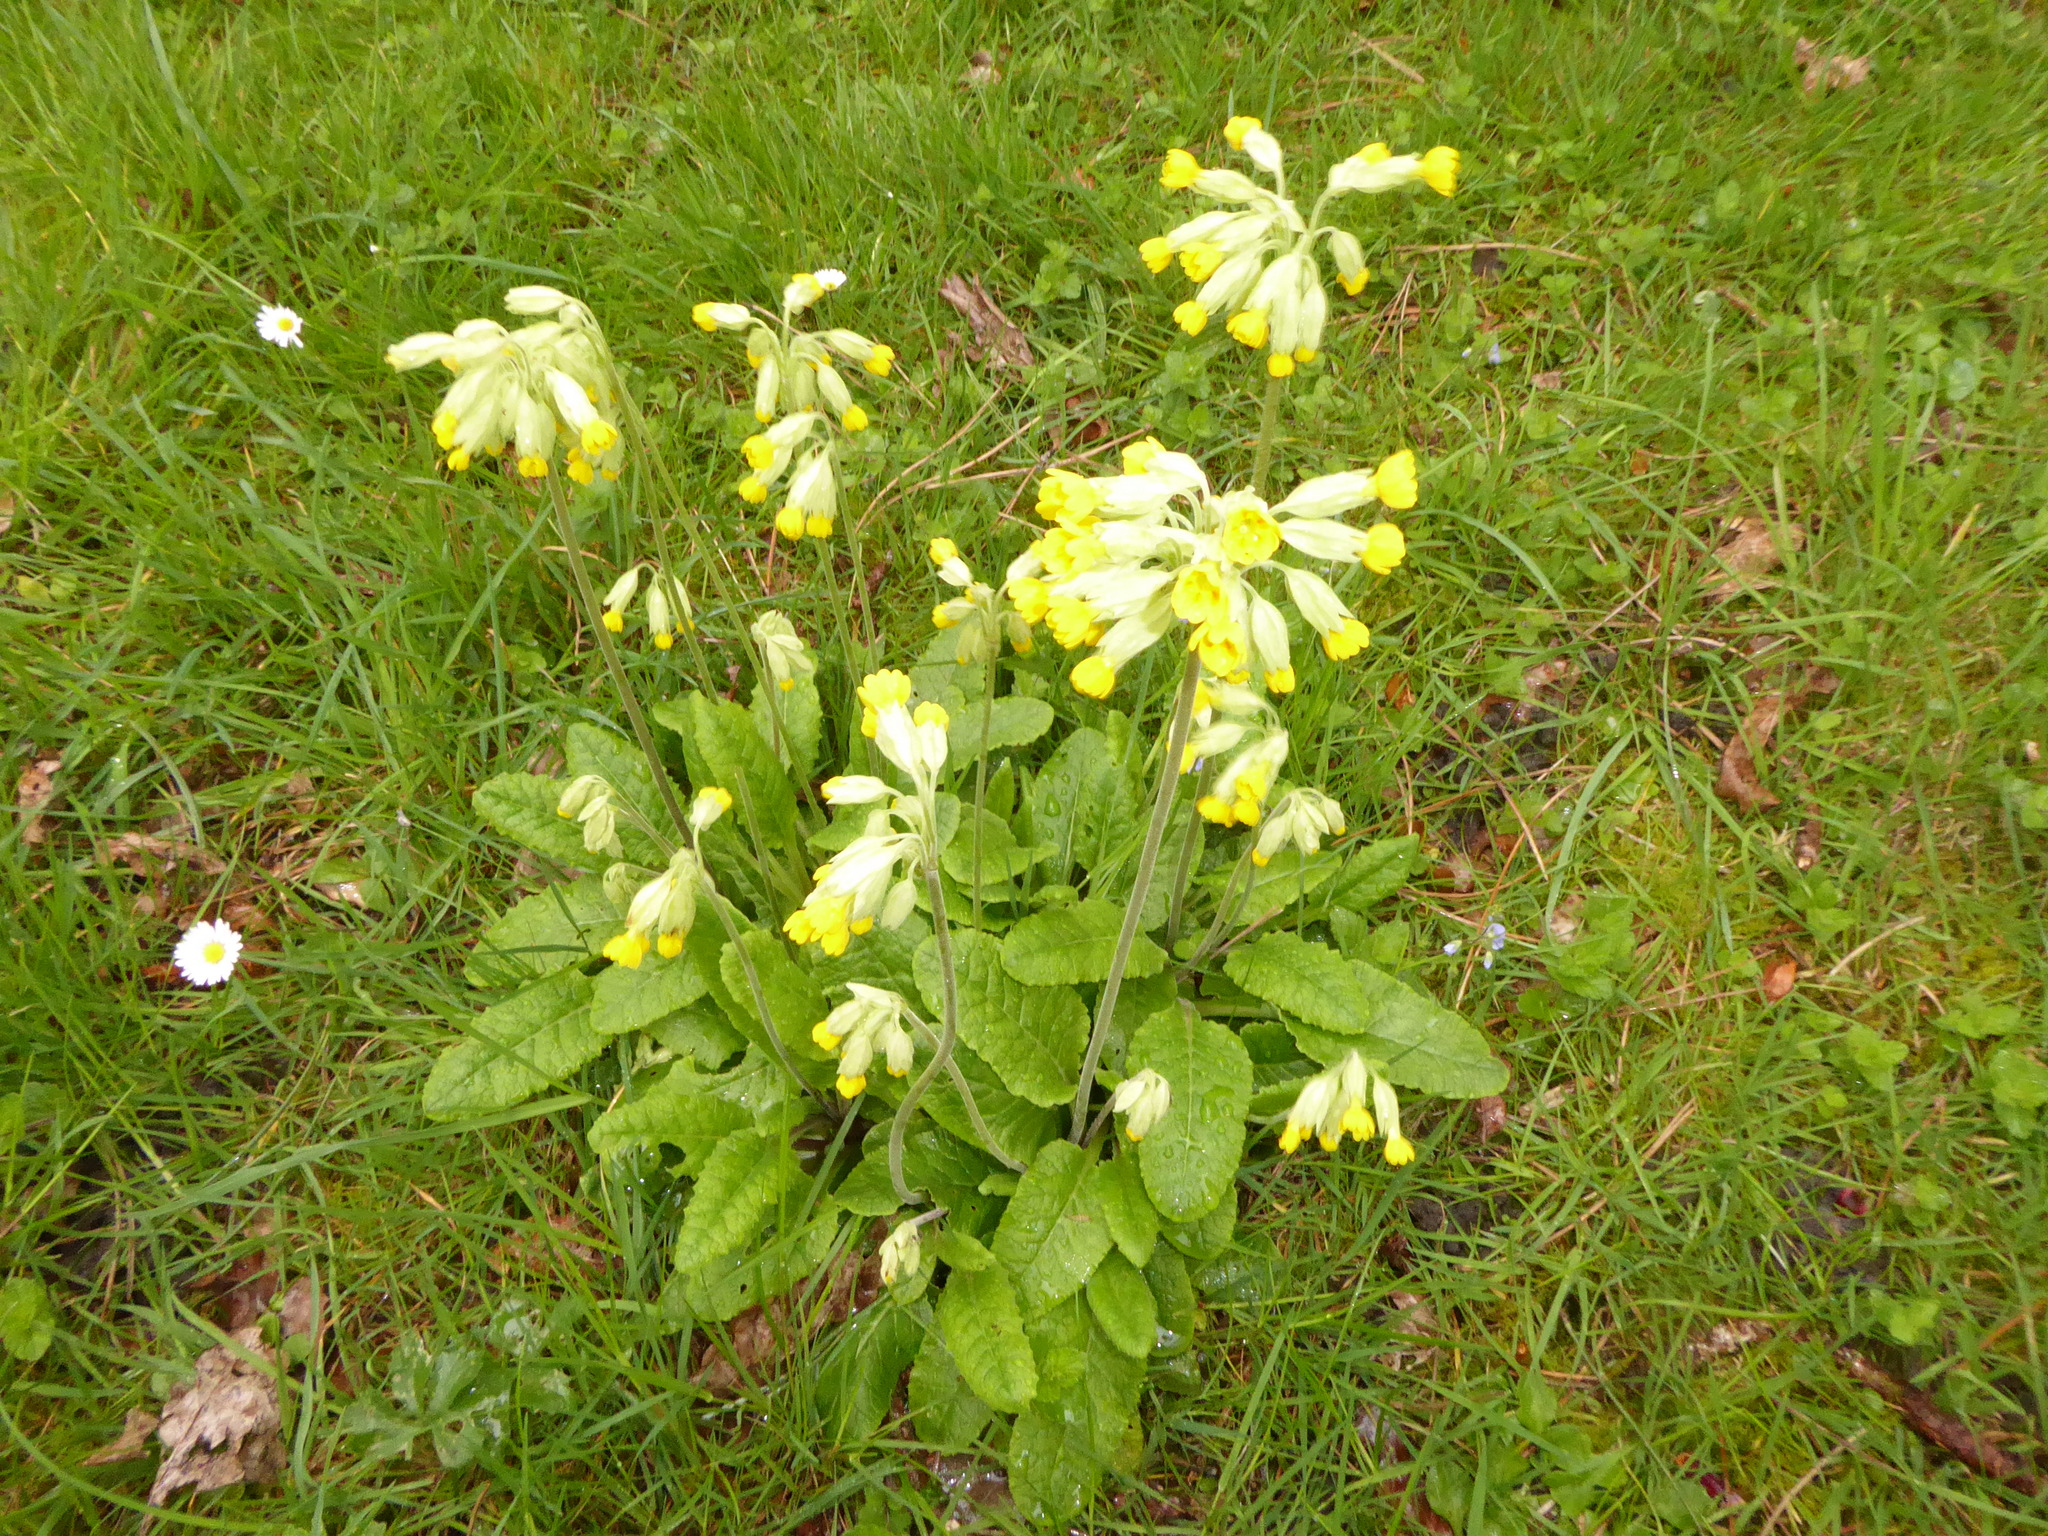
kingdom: Plantae
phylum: Tracheophyta
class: Magnoliopsida
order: Ericales
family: Primulaceae
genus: Primula
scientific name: Primula veris
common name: Cowslip
